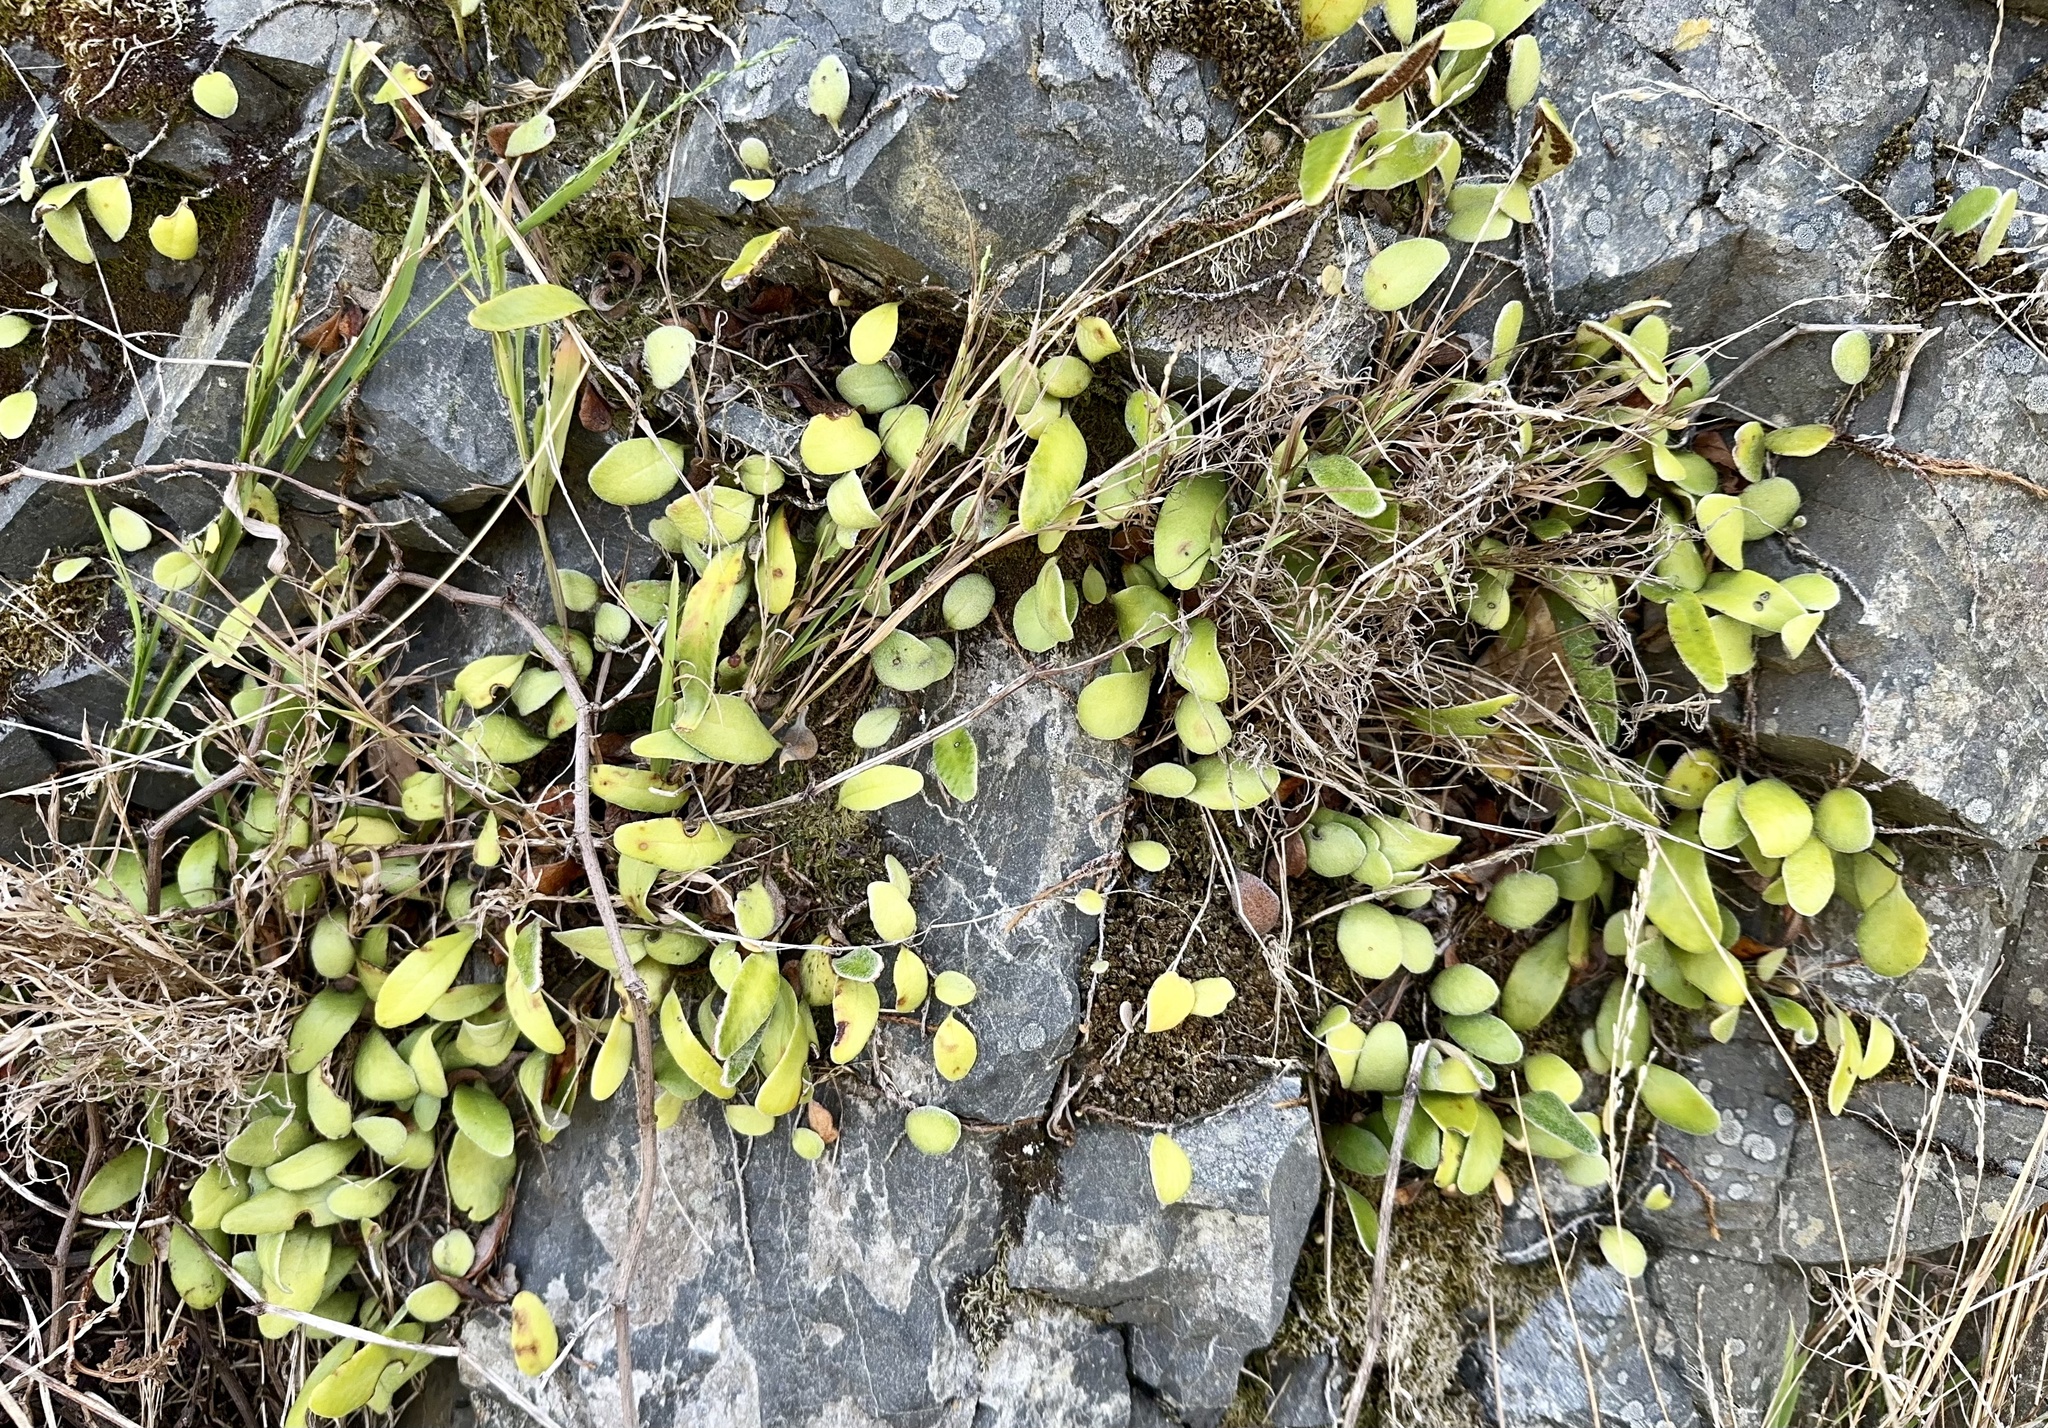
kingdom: Plantae
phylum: Tracheophyta
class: Polypodiopsida
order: Polypodiales
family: Polypodiaceae
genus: Pyrrosia
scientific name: Pyrrosia eleagnifolia
